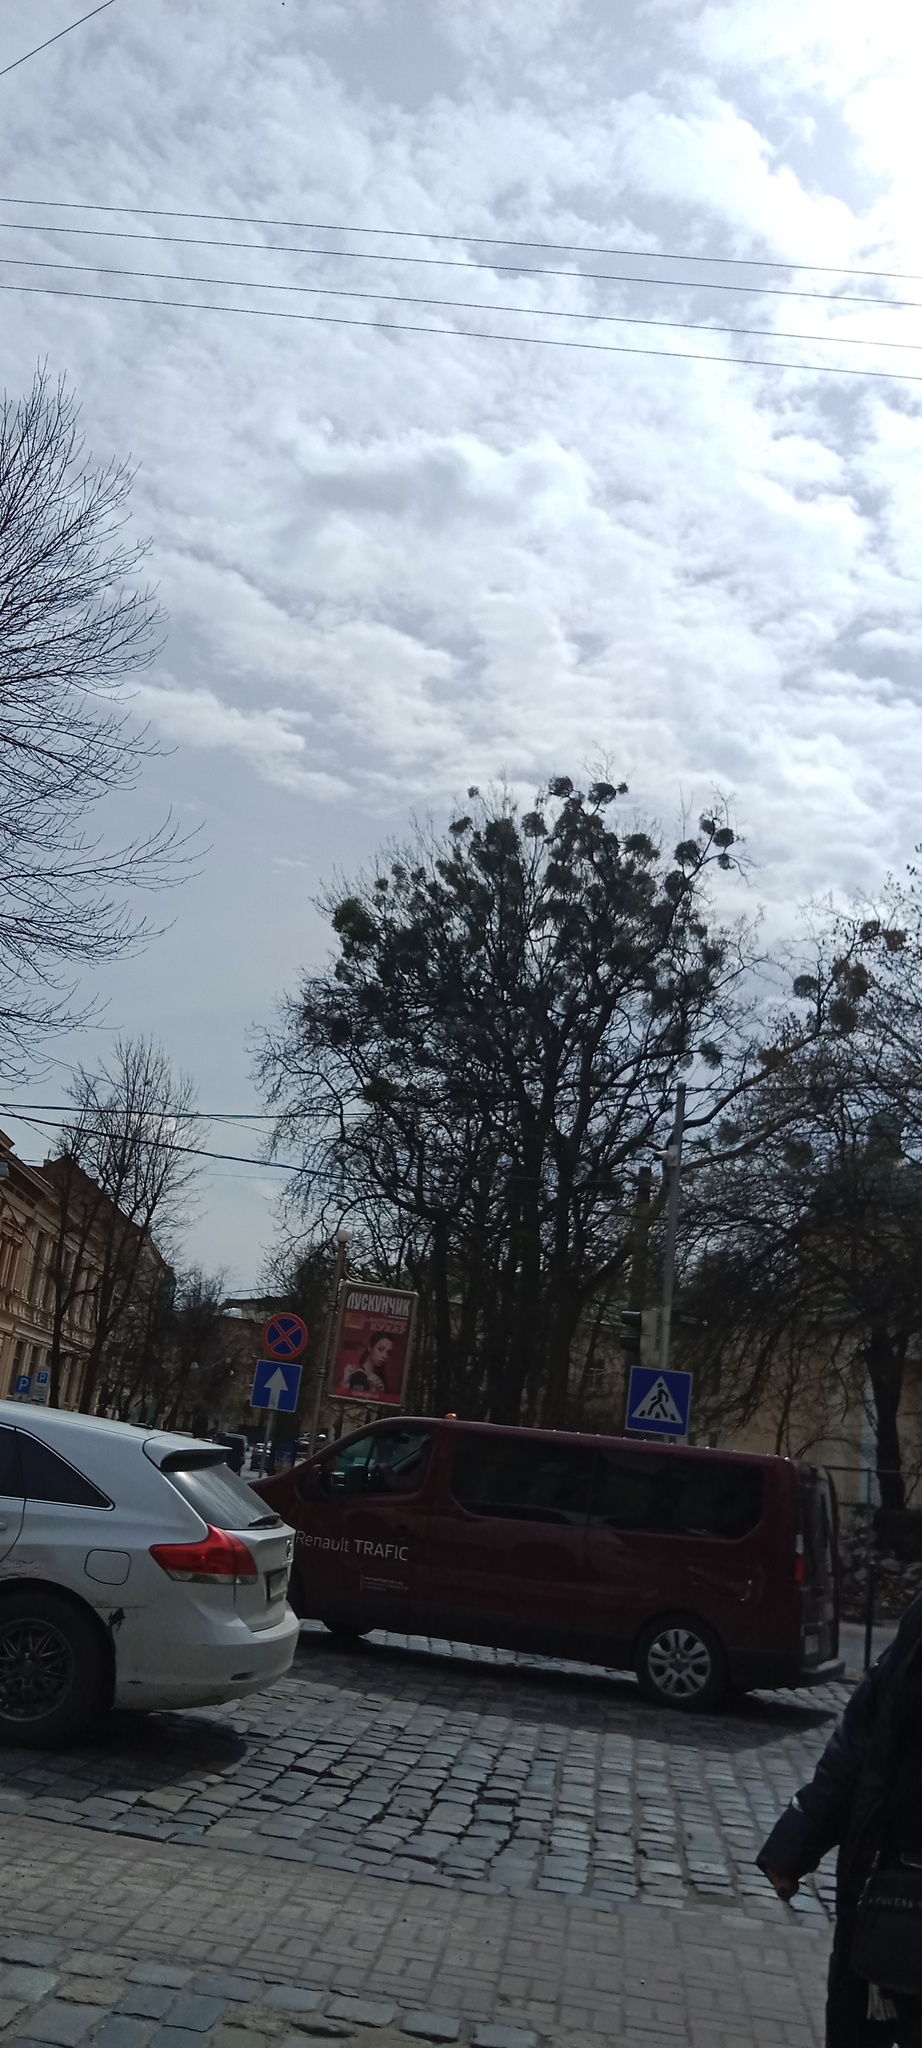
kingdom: Plantae
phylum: Tracheophyta
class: Magnoliopsida
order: Santalales
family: Viscaceae
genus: Viscum
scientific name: Viscum album
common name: Mistletoe
